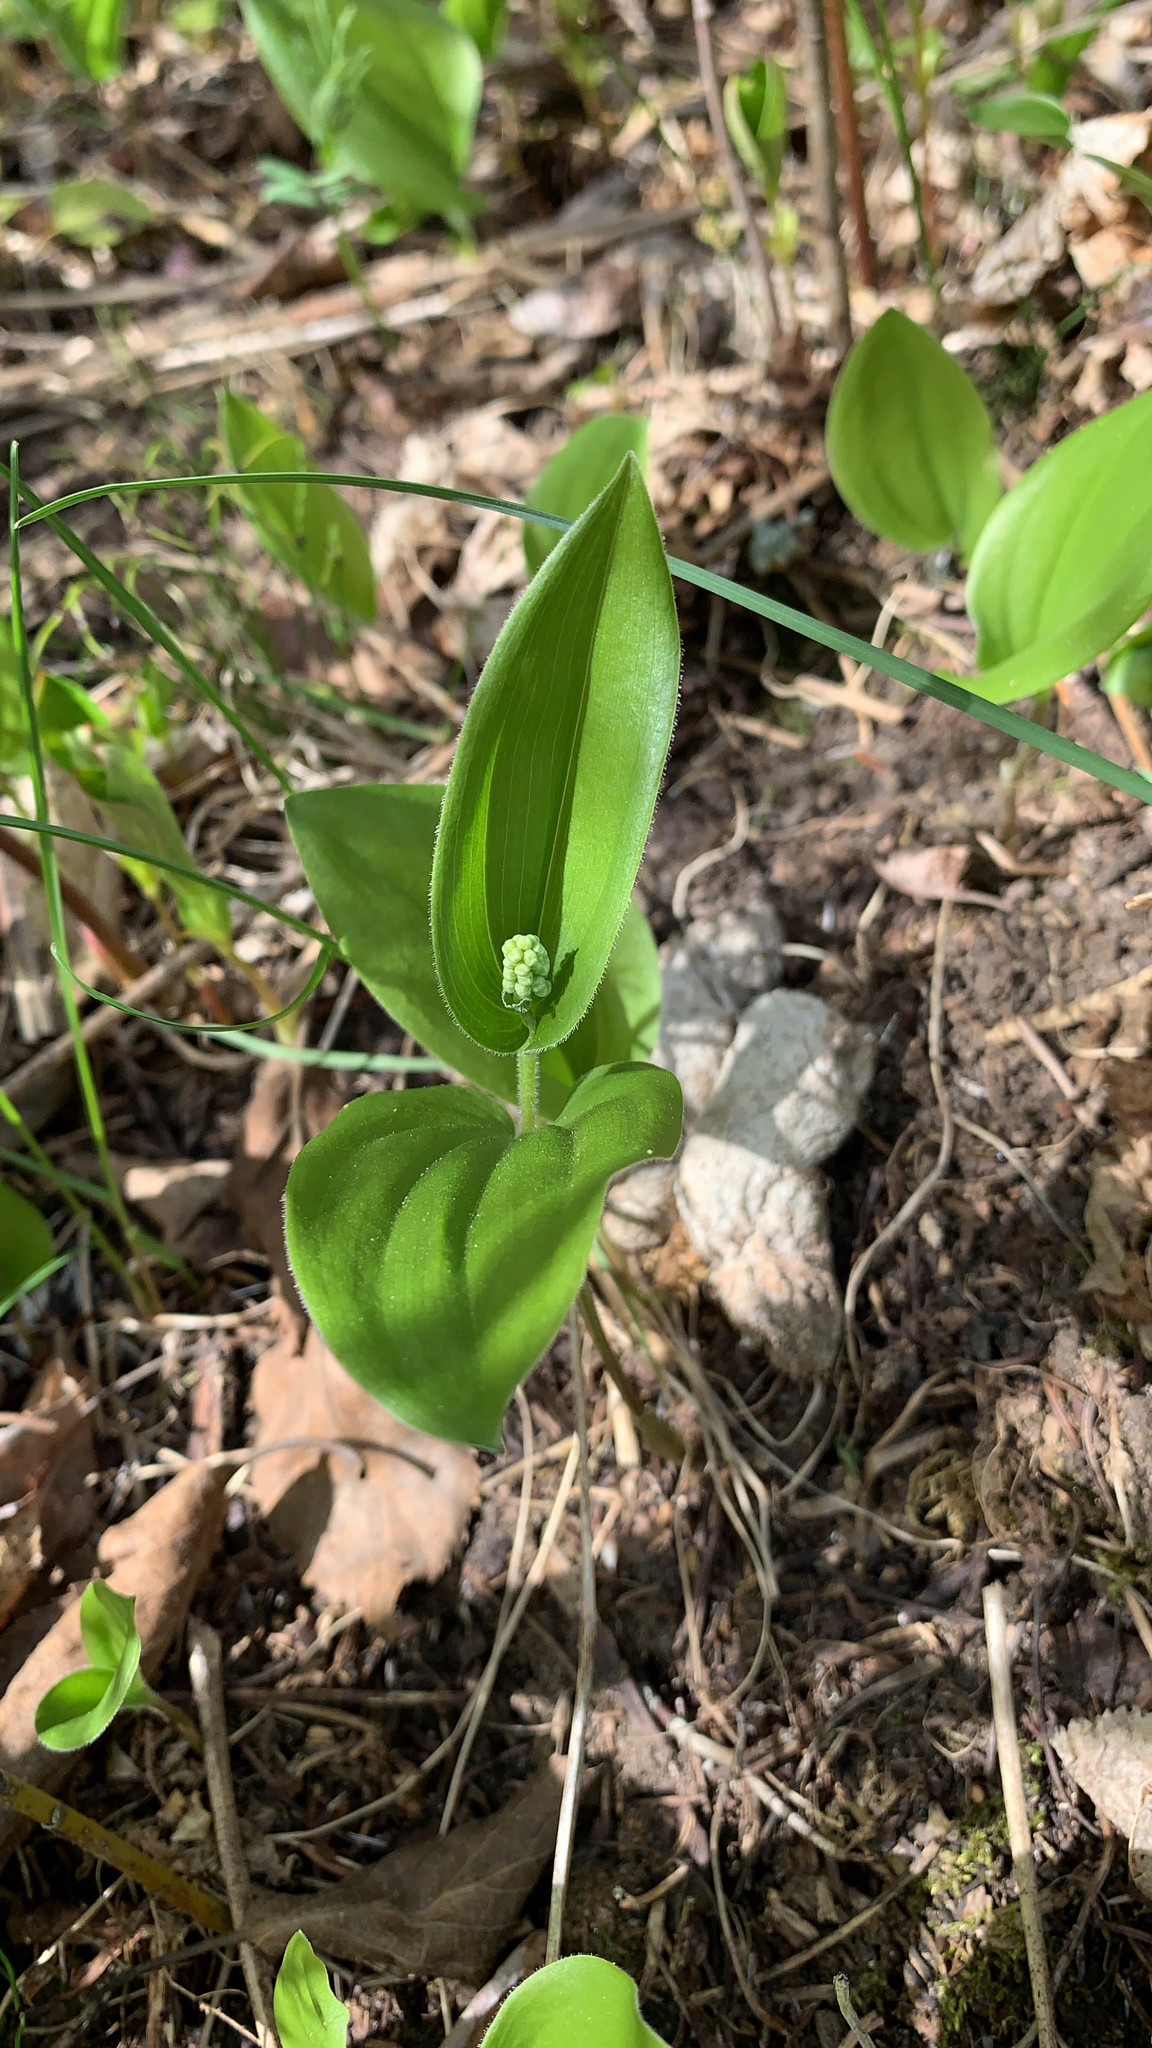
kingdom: Plantae
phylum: Tracheophyta
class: Liliopsida
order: Asparagales
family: Asparagaceae
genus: Maianthemum
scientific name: Maianthemum canadense
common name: False lily-of-the-valley
